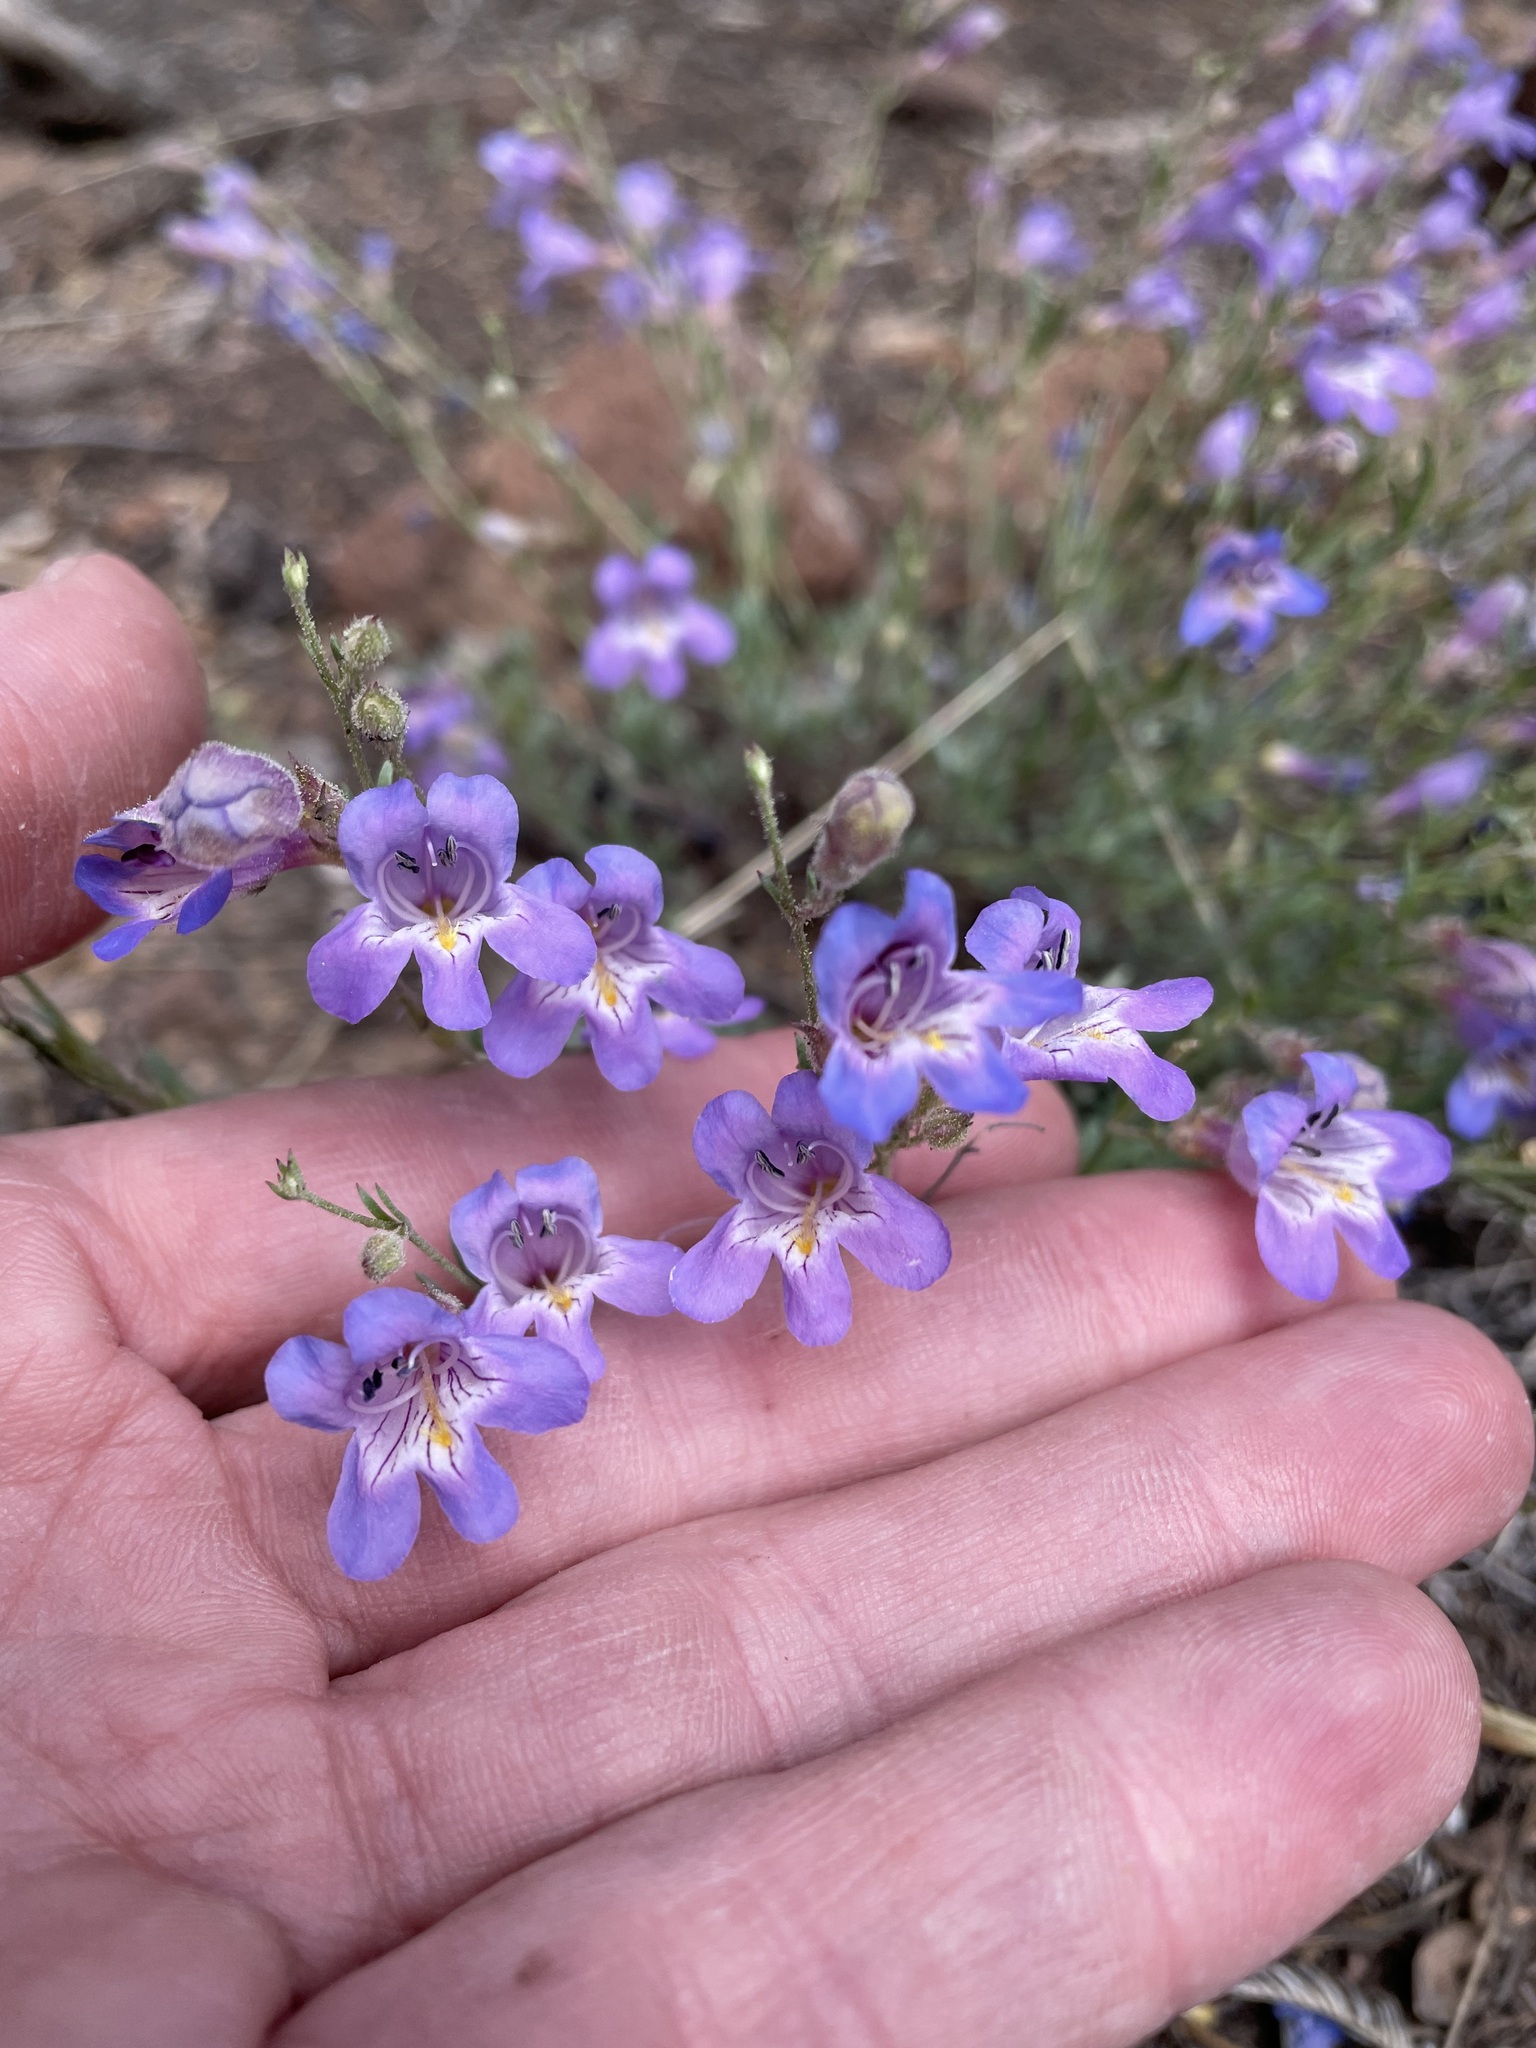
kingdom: Plantae
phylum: Tracheophyta
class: Magnoliopsida
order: Lamiales
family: Plantaginaceae
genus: Penstemon
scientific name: Penstemon linarioides
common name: Siler's penstemon
